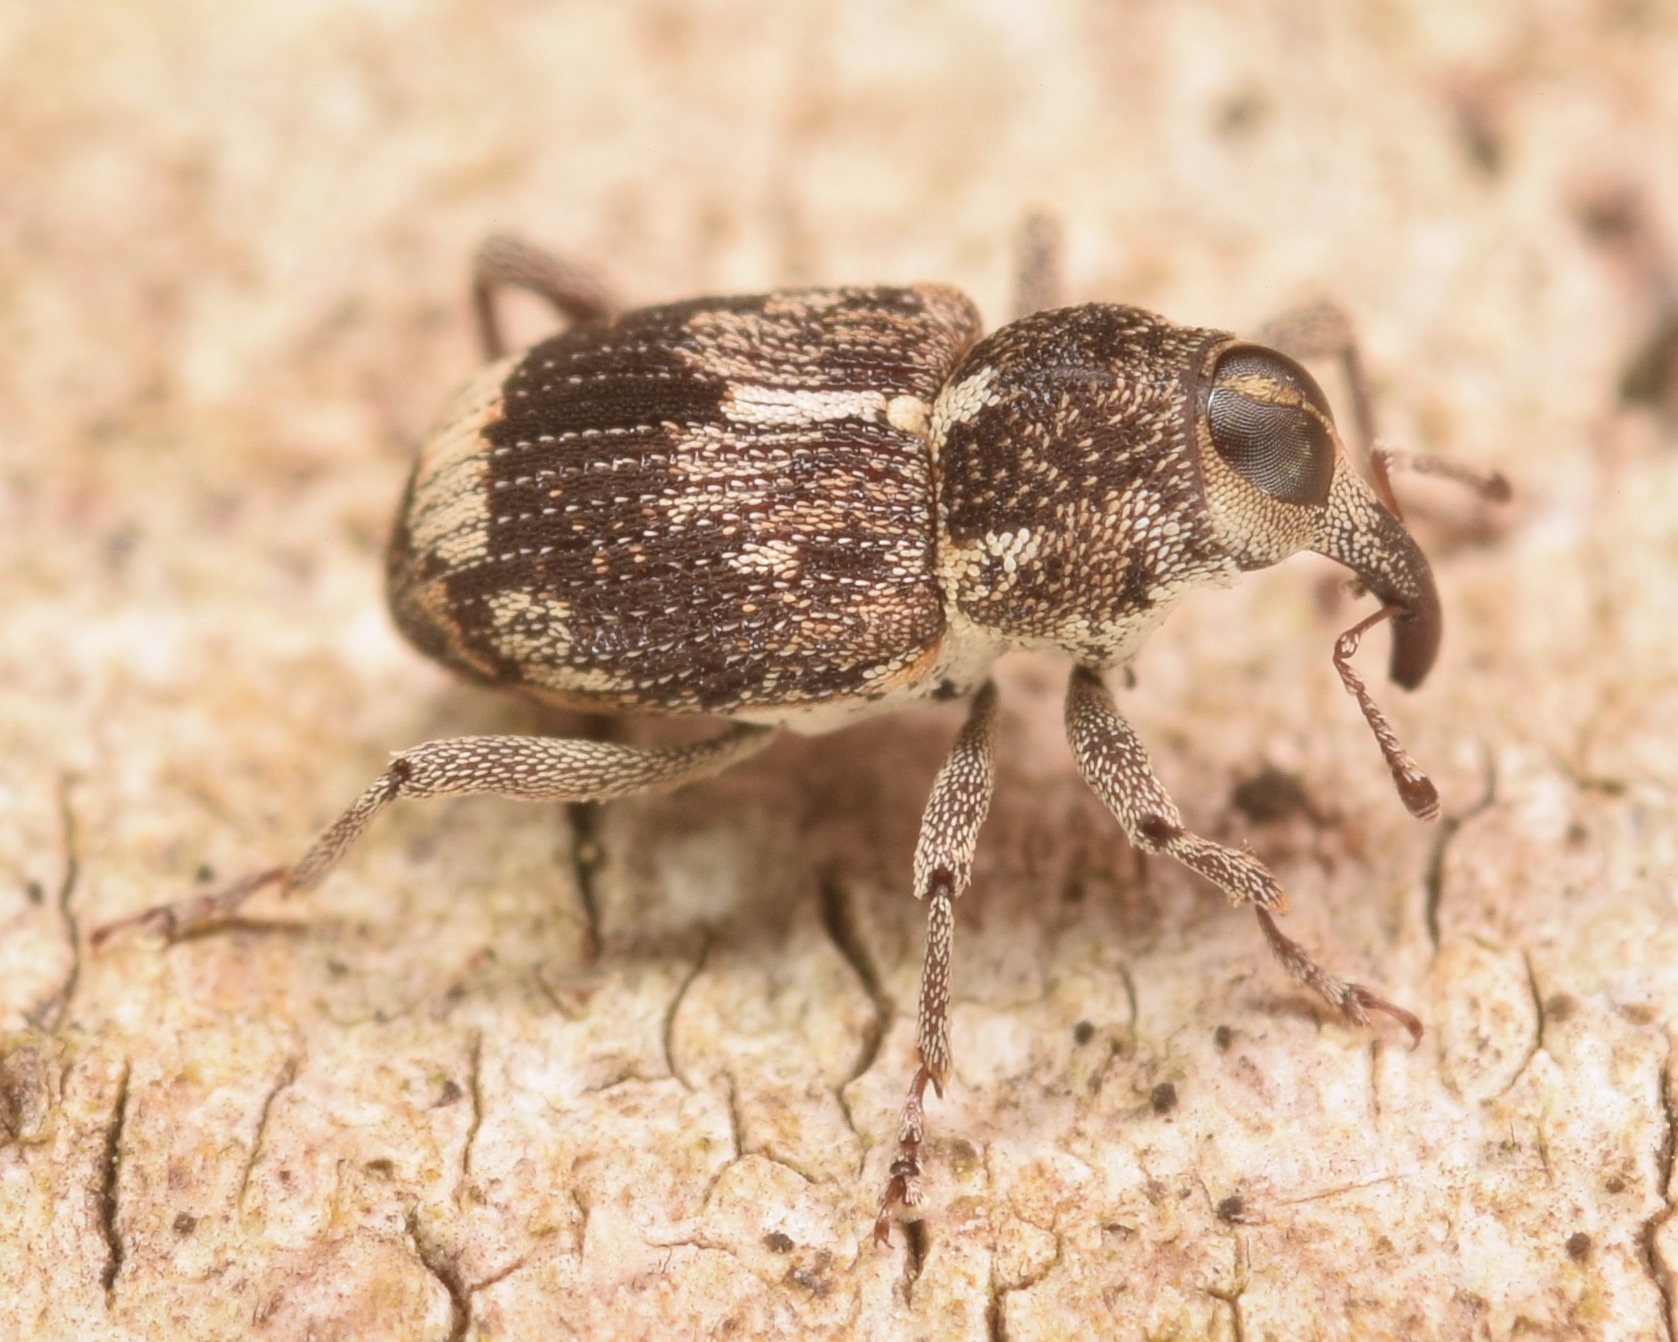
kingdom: Animalia
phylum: Arthropoda
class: Insecta
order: Coleoptera
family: Curculionidae
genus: Acoptus
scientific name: Acoptus suturalis
